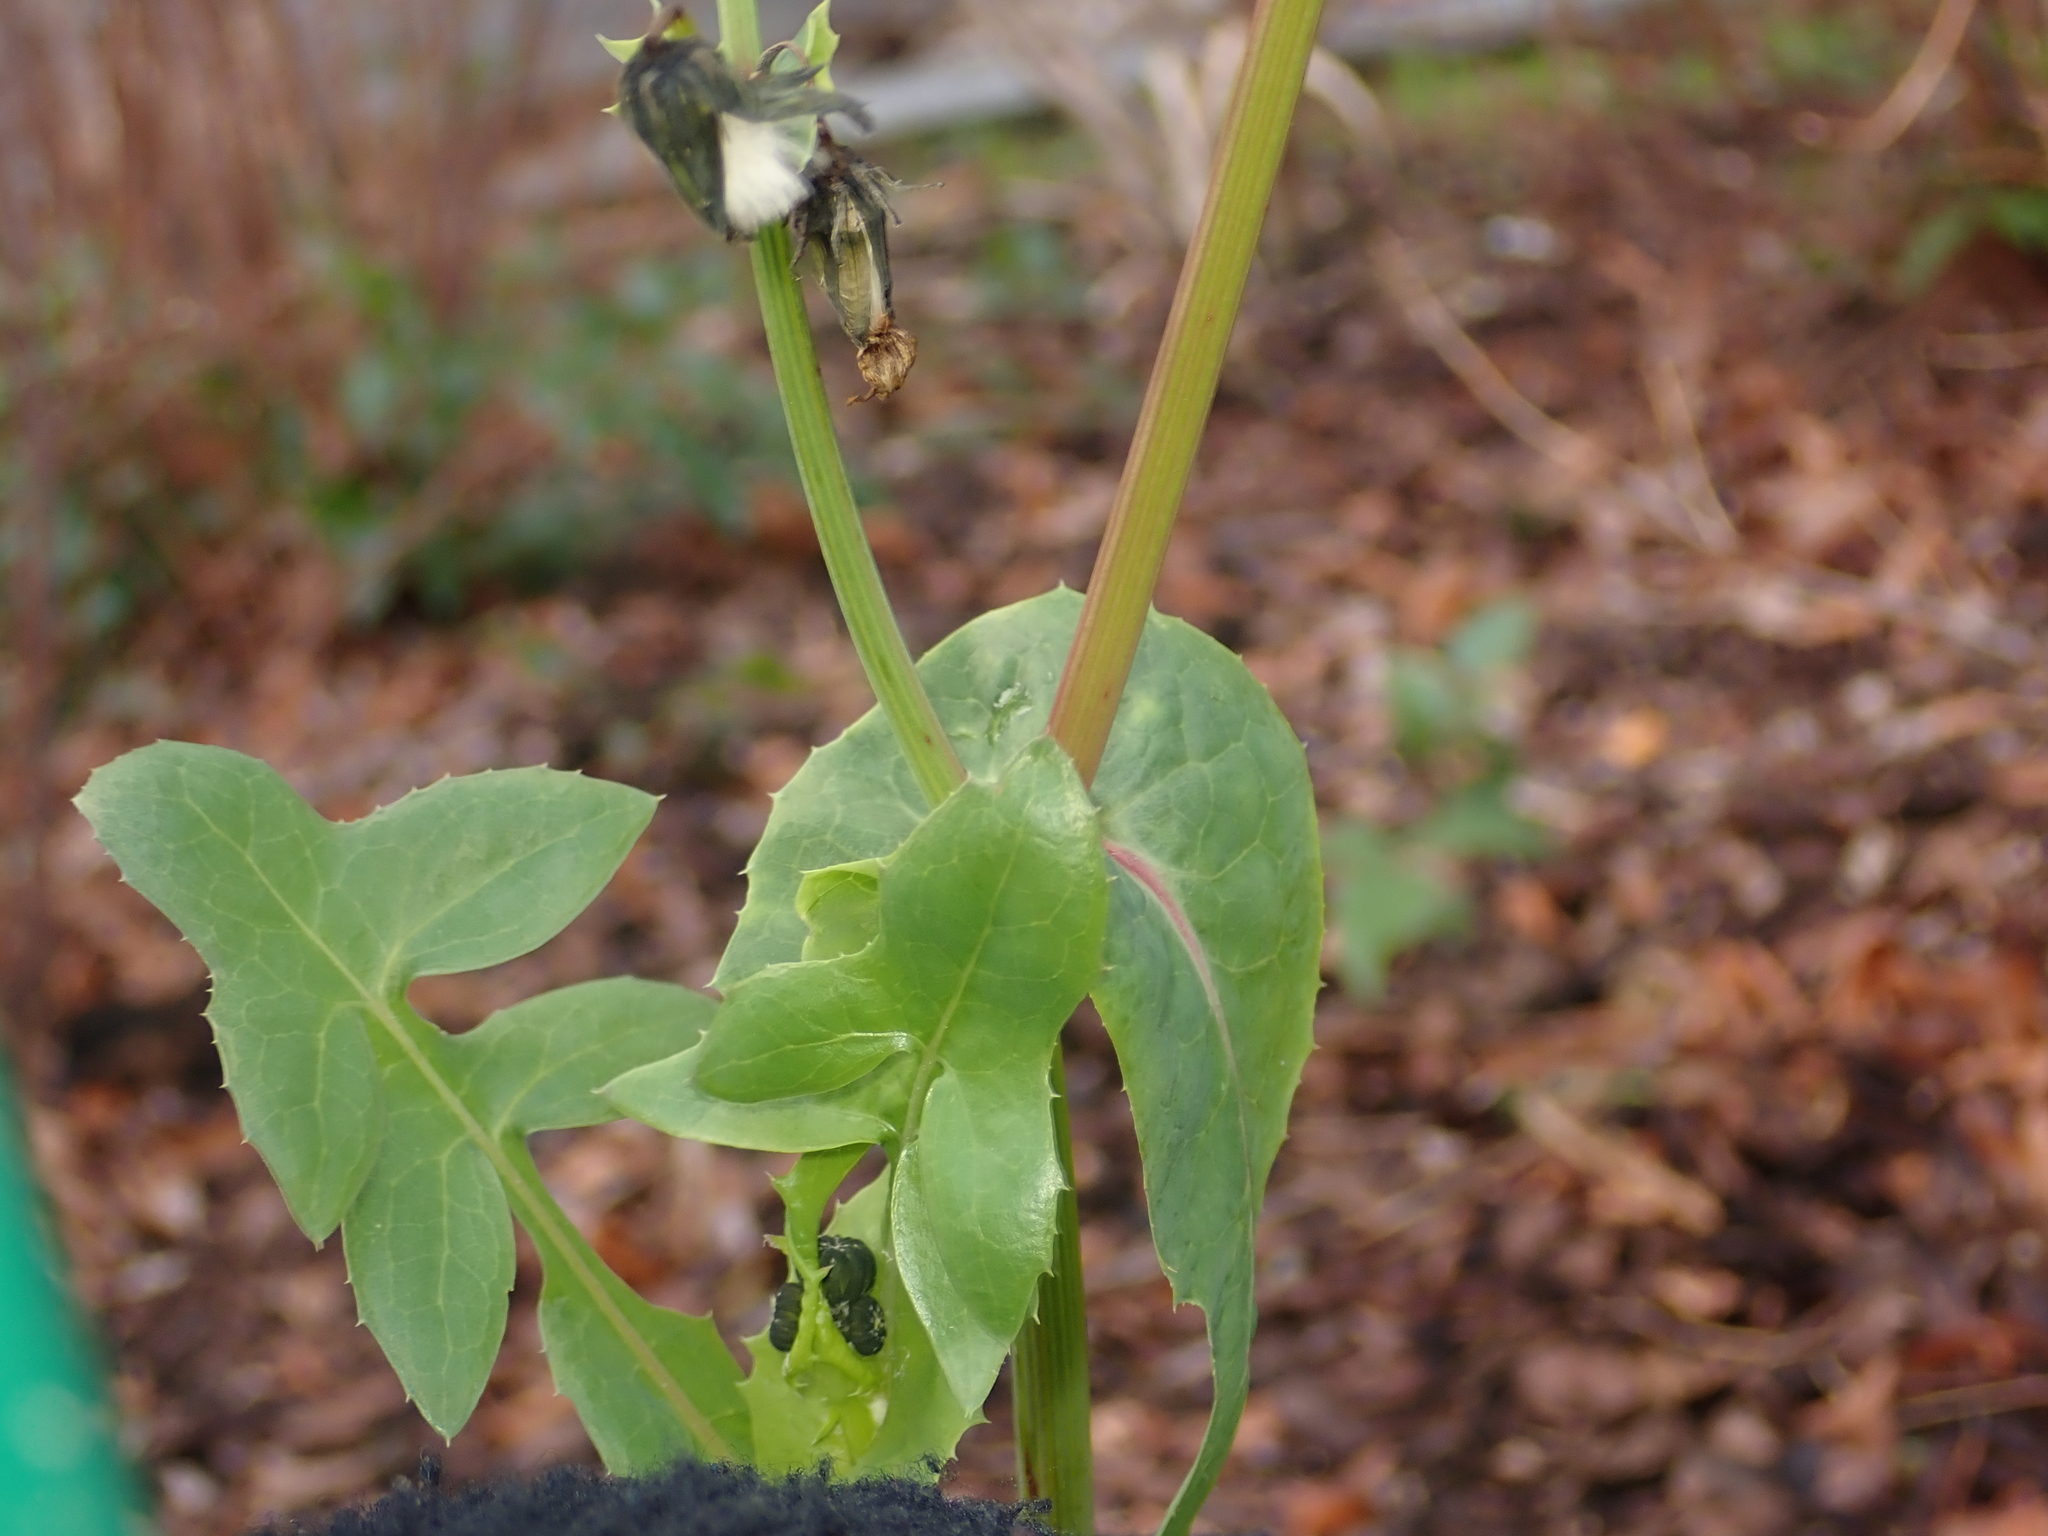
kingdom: Plantae
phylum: Tracheophyta
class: Magnoliopsida
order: Asterales
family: Asteraceae
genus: Sonchus
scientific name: Sonchus oleraceus
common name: Common sowthistle
